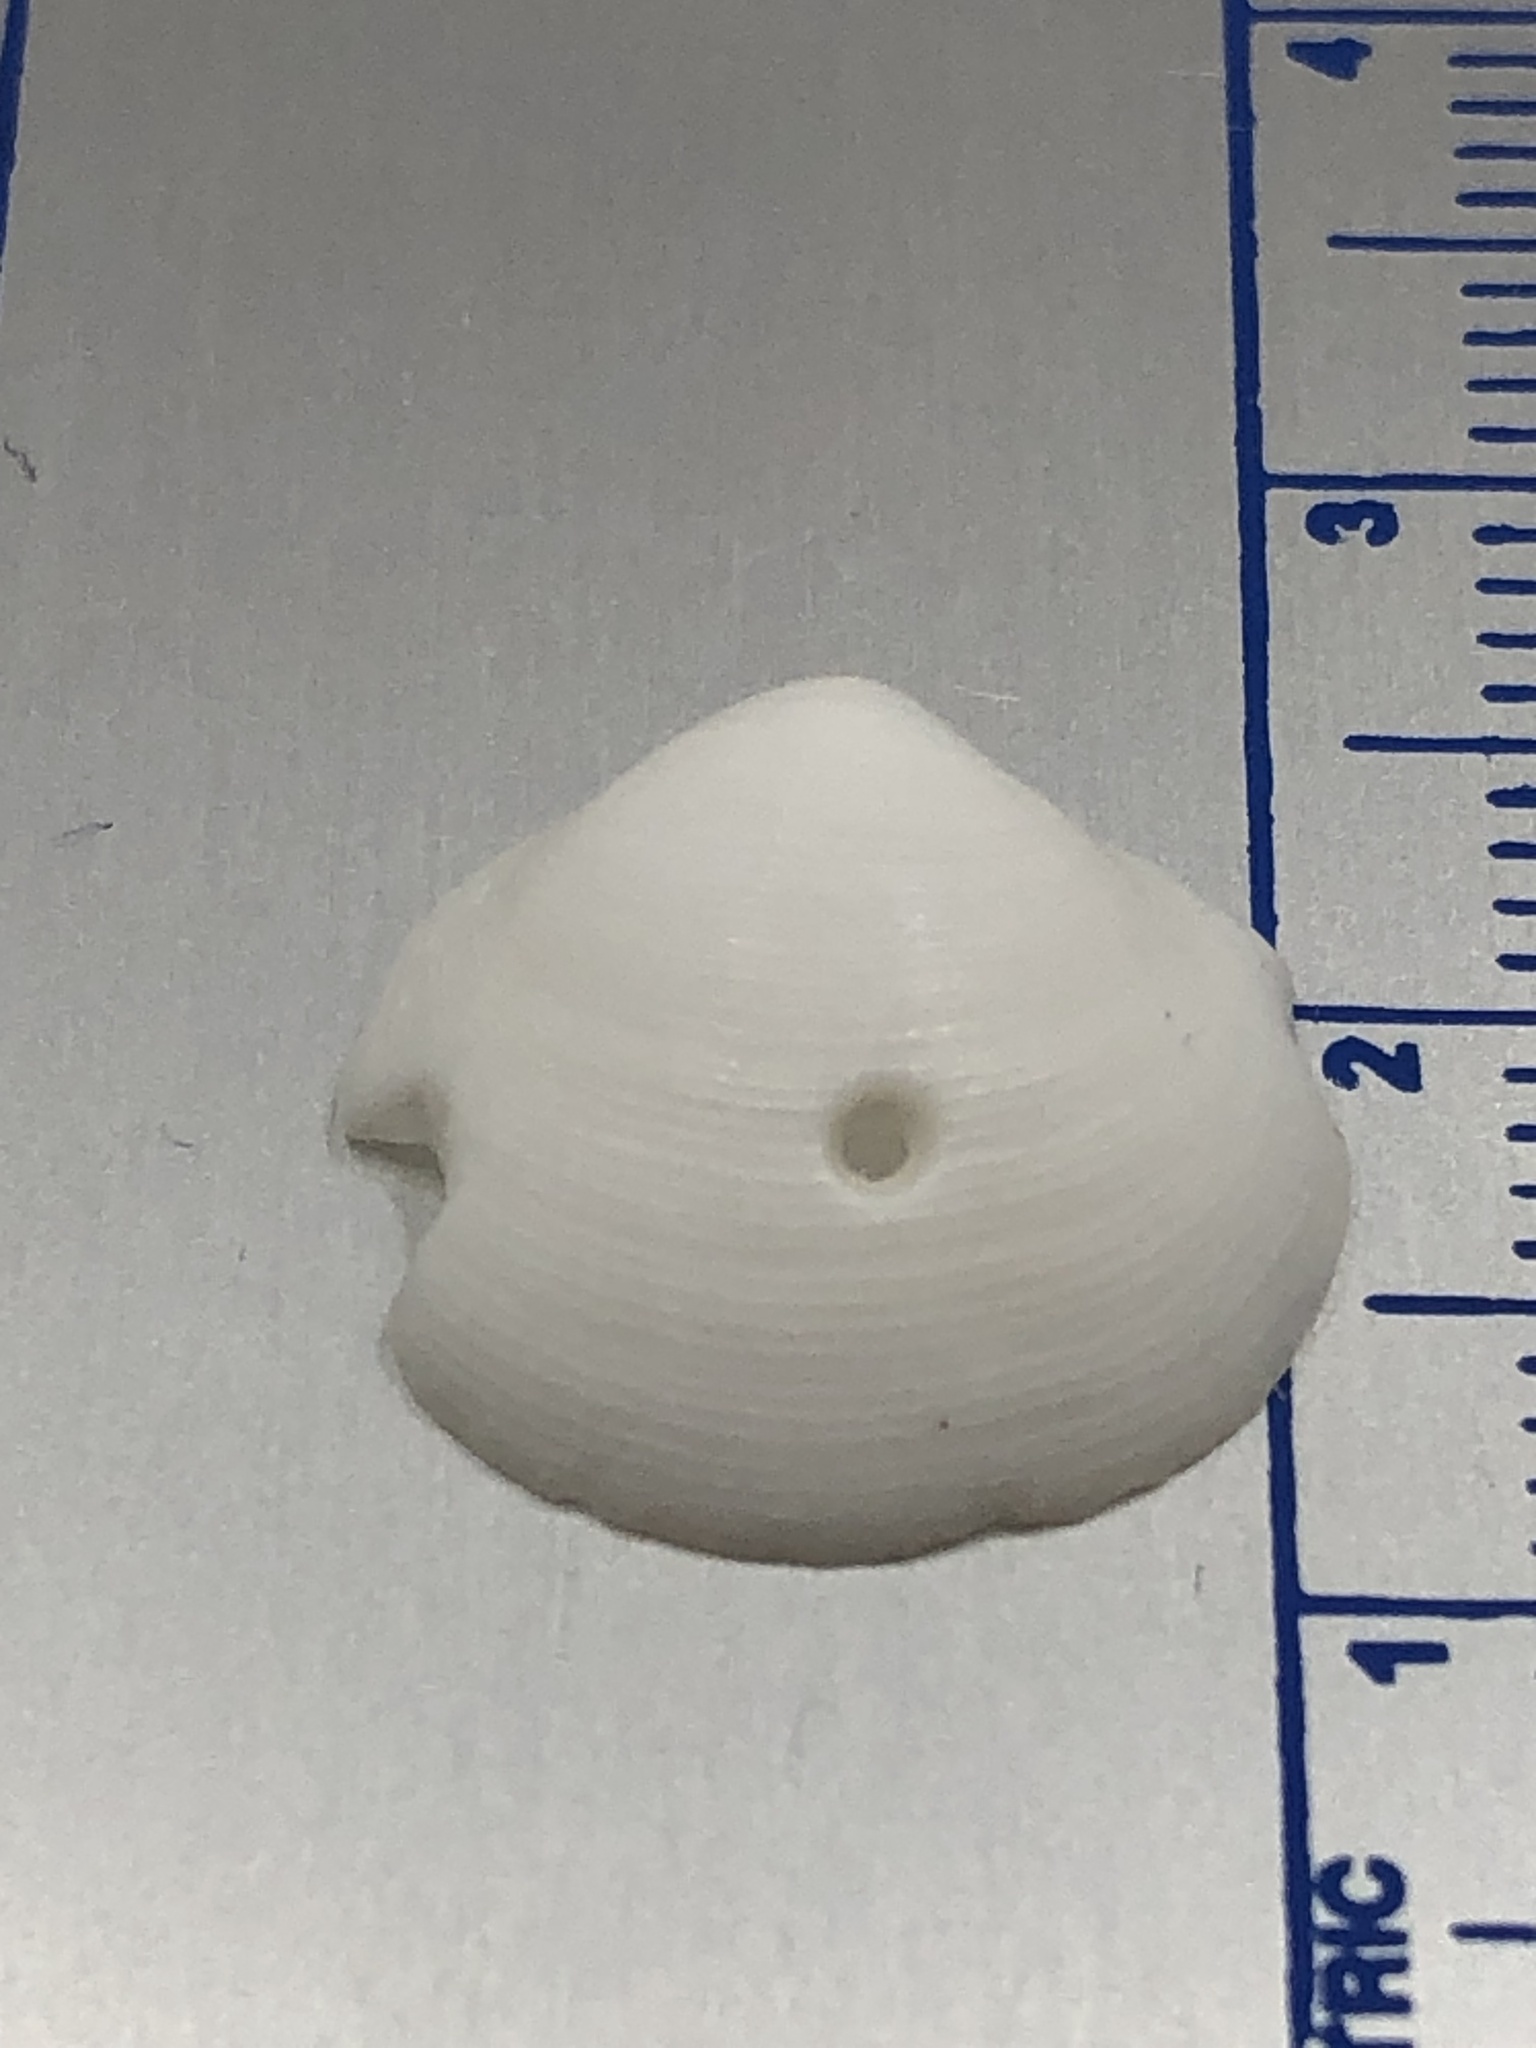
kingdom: Animalia
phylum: Mollusca
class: Bivalvia
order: Lucinida
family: Lucinidae
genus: Callucina
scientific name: Callucina keenae
